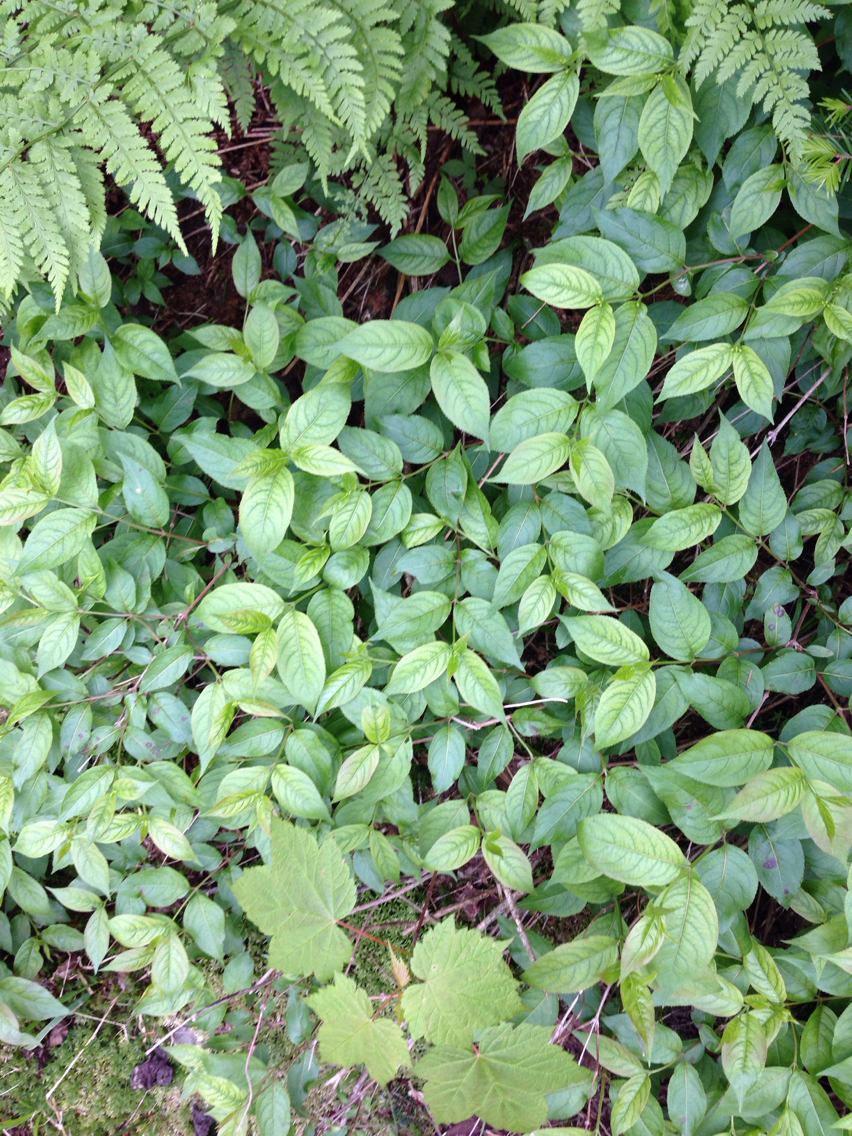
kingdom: Plantae
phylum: Tracheophyta
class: Magnoliopsida
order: Dipsacales
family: Caprifoliaceae
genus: Diervilla
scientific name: Diervilla lonicera
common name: Bush-honeysuckle
